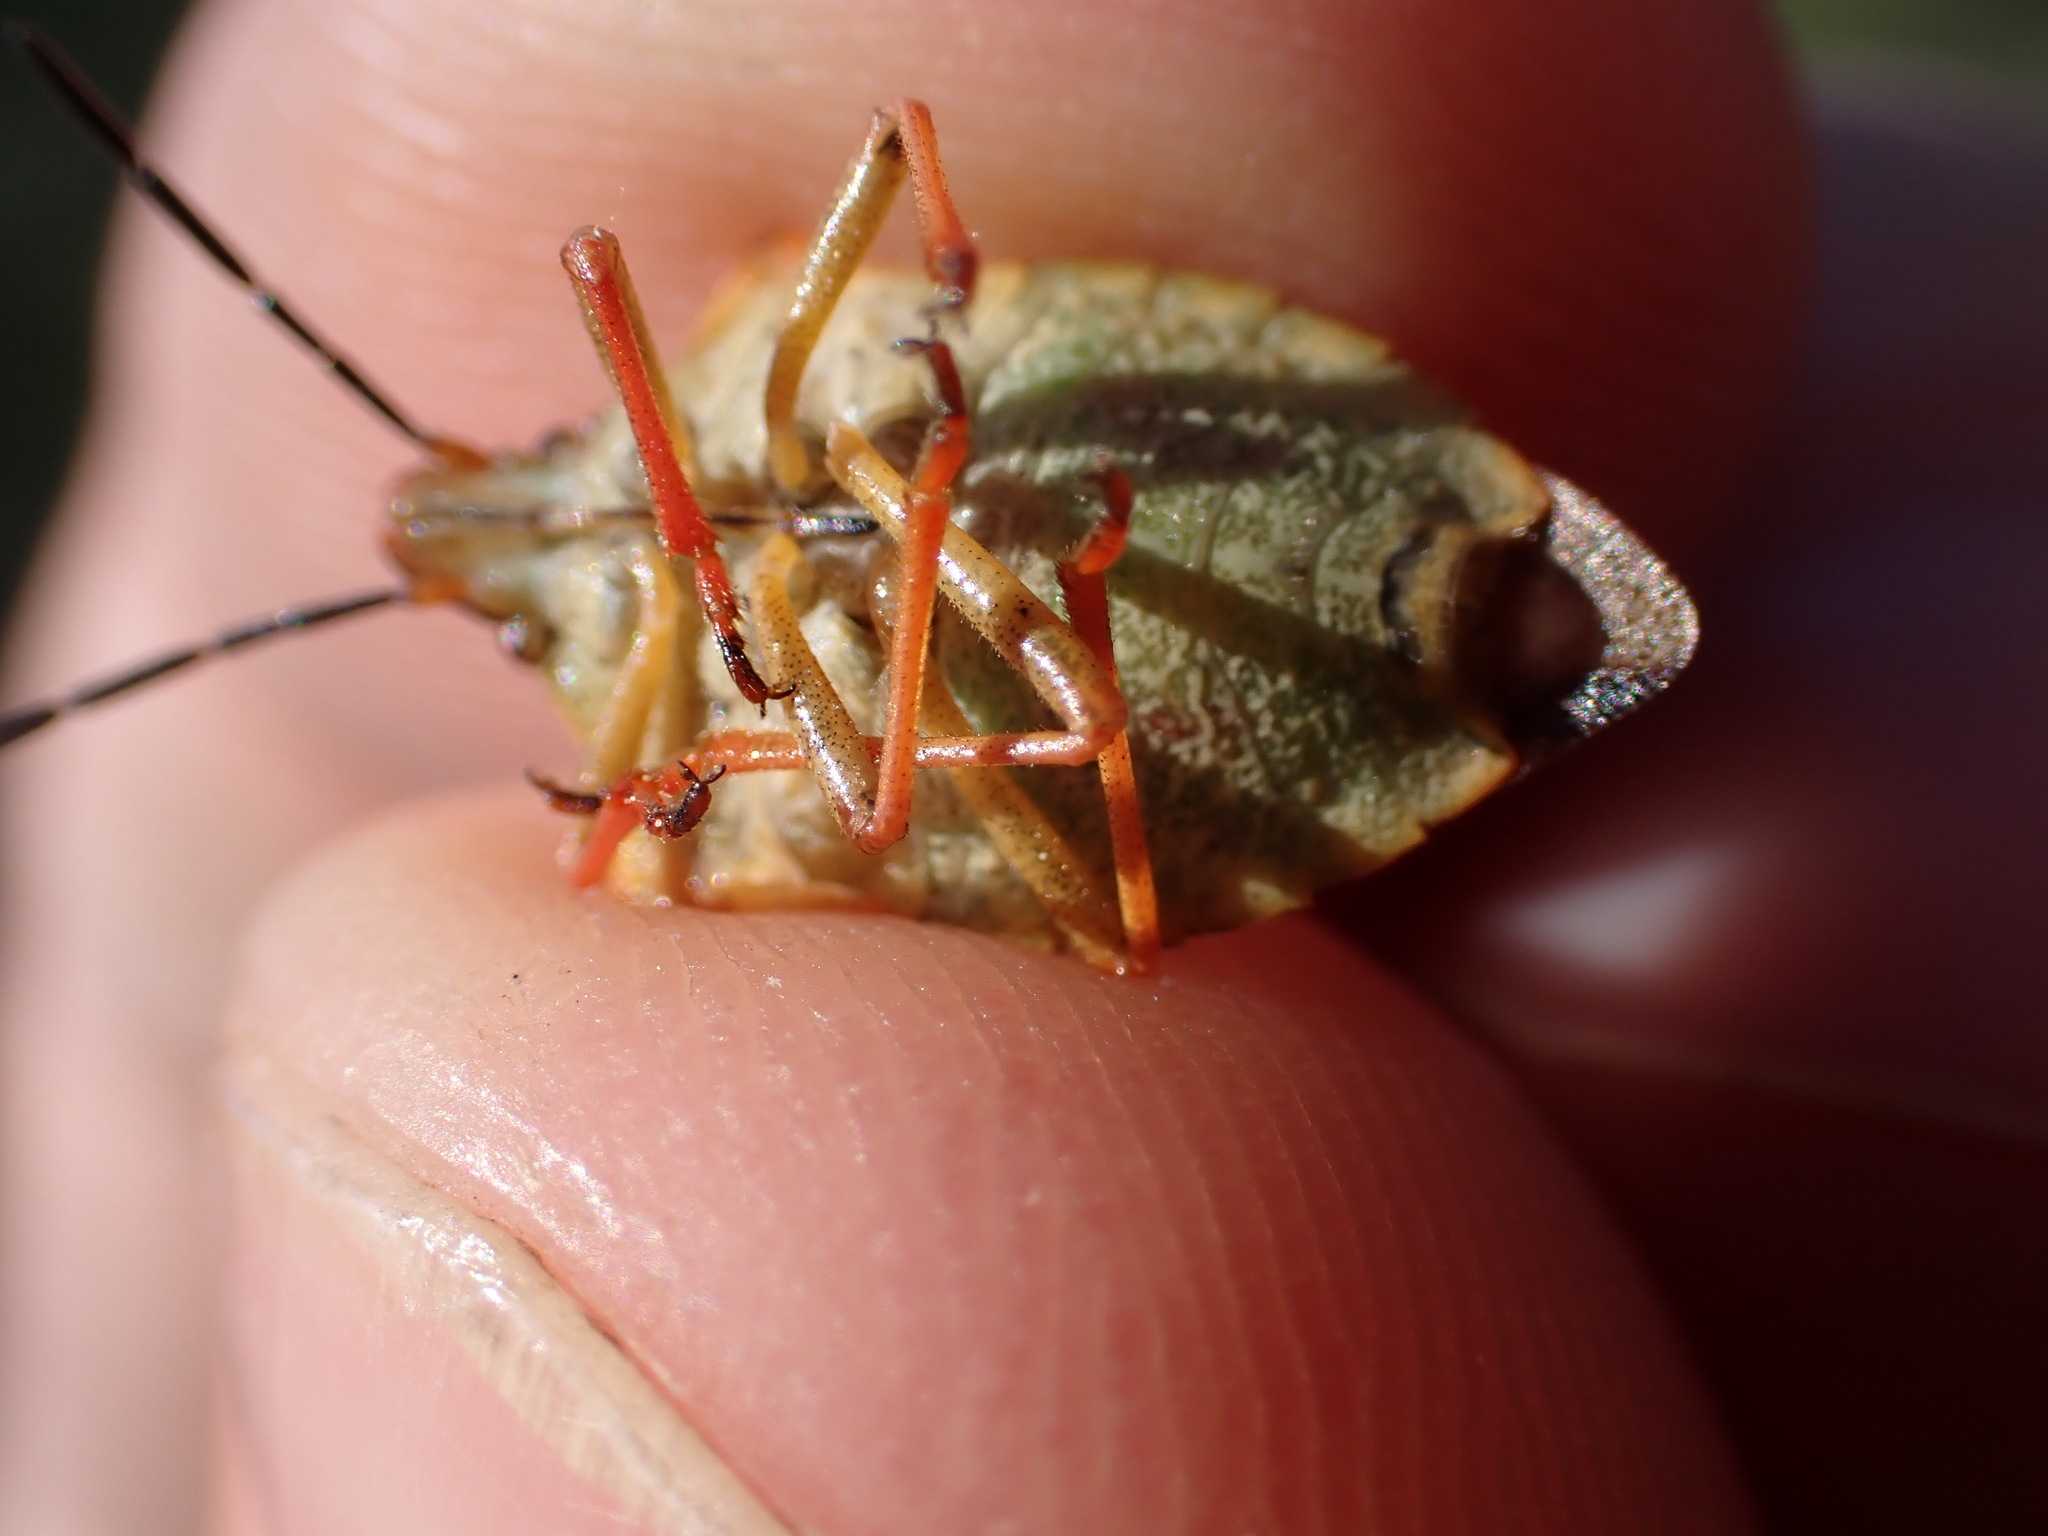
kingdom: Animalia
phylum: Arthropoda
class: Insecta
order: Hemiptera
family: Pentatomidae
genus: Carpocoris
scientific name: Carpocoris mediterraneus
